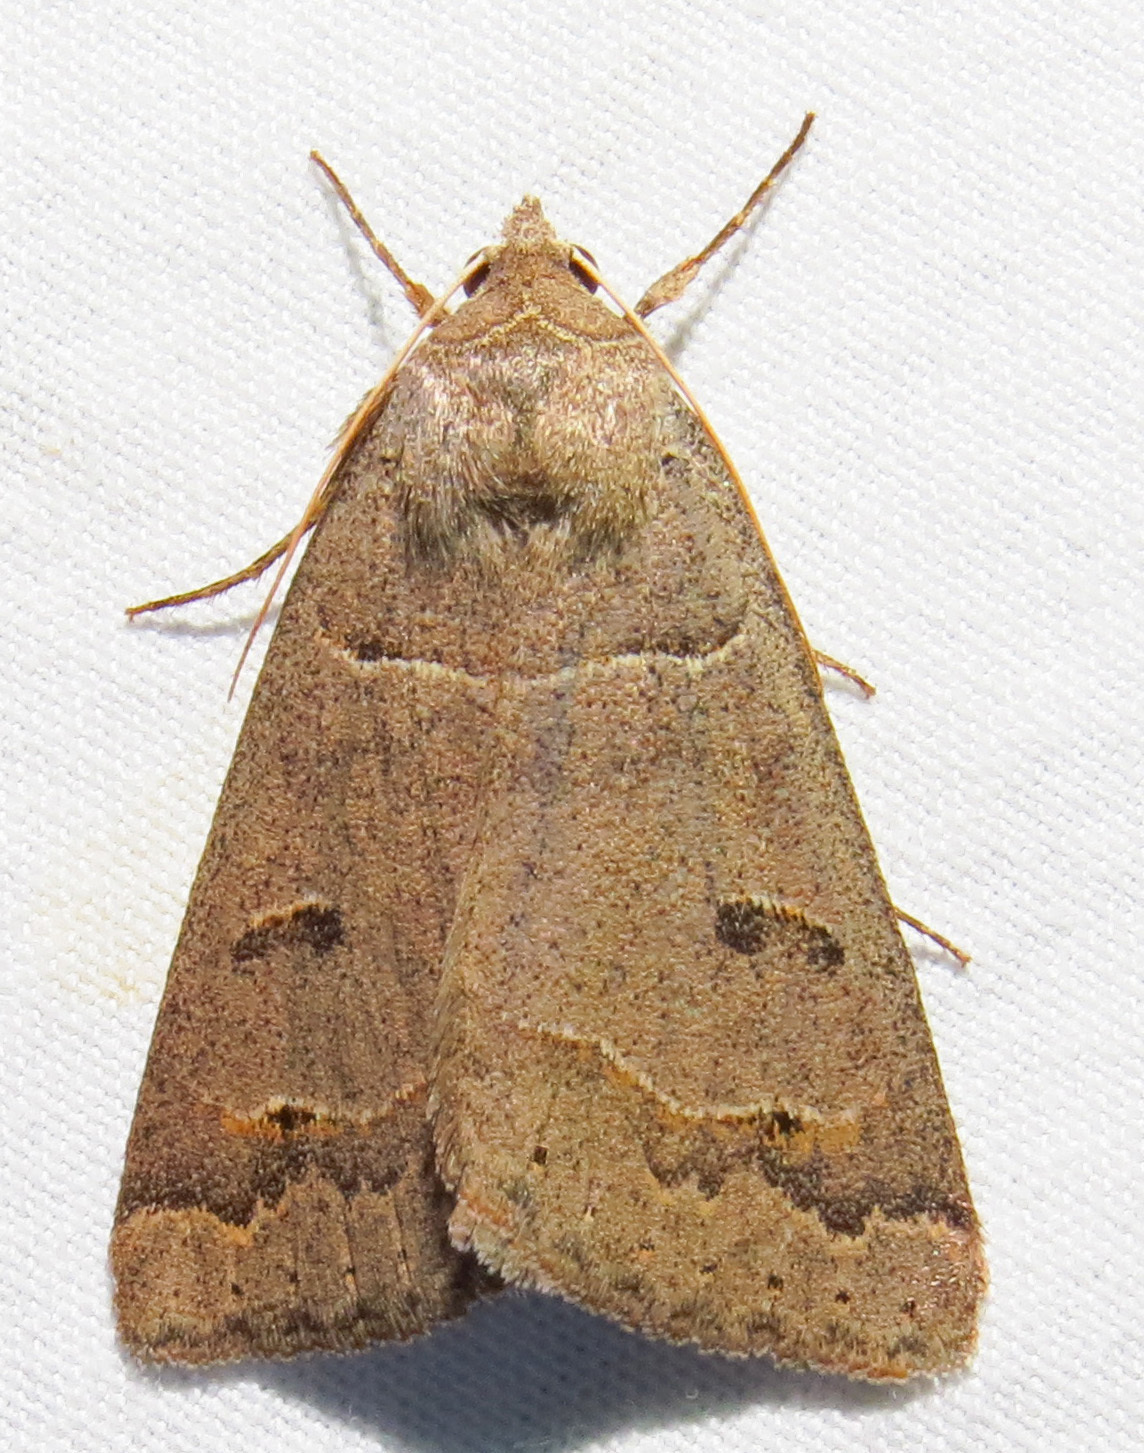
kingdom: Animalia
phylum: Arthropoda
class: Insecta
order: Lepidoptera
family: Erebidae
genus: Phoberia
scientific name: Phoberia atomaris
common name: Common oak moth
